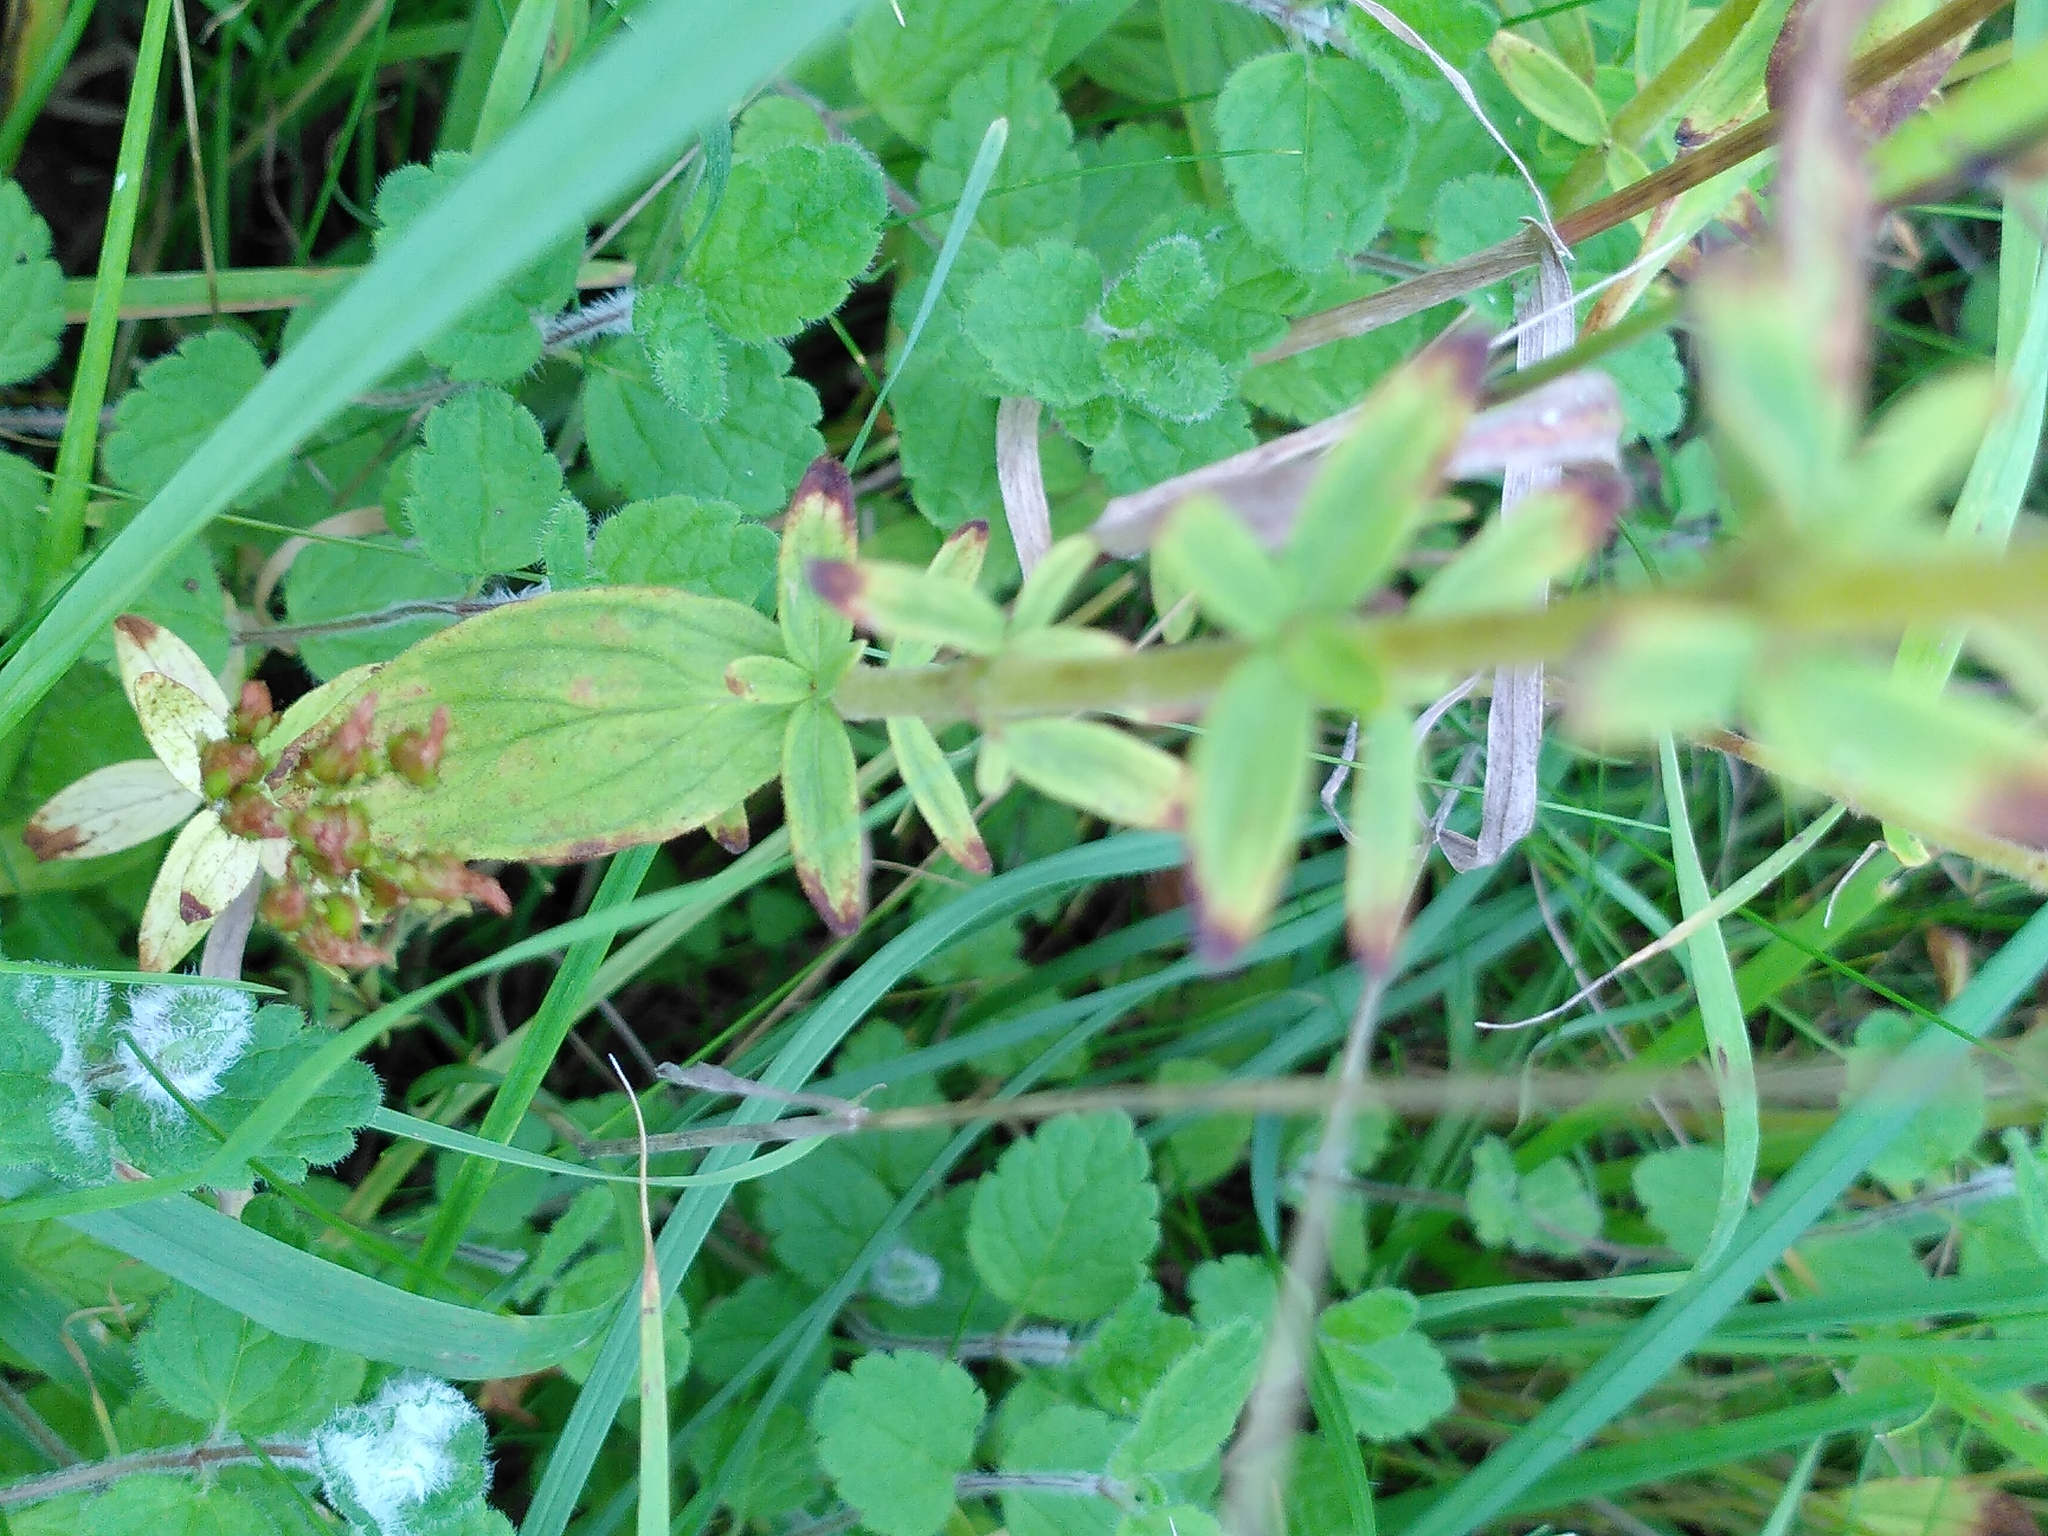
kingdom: Plantae
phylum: Tracheophyta
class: Magnoliopsida
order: Malpighiales
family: Hypericaceae
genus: Hypericum
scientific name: Hypericum hirsutum
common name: Hairy st. john's-wort
